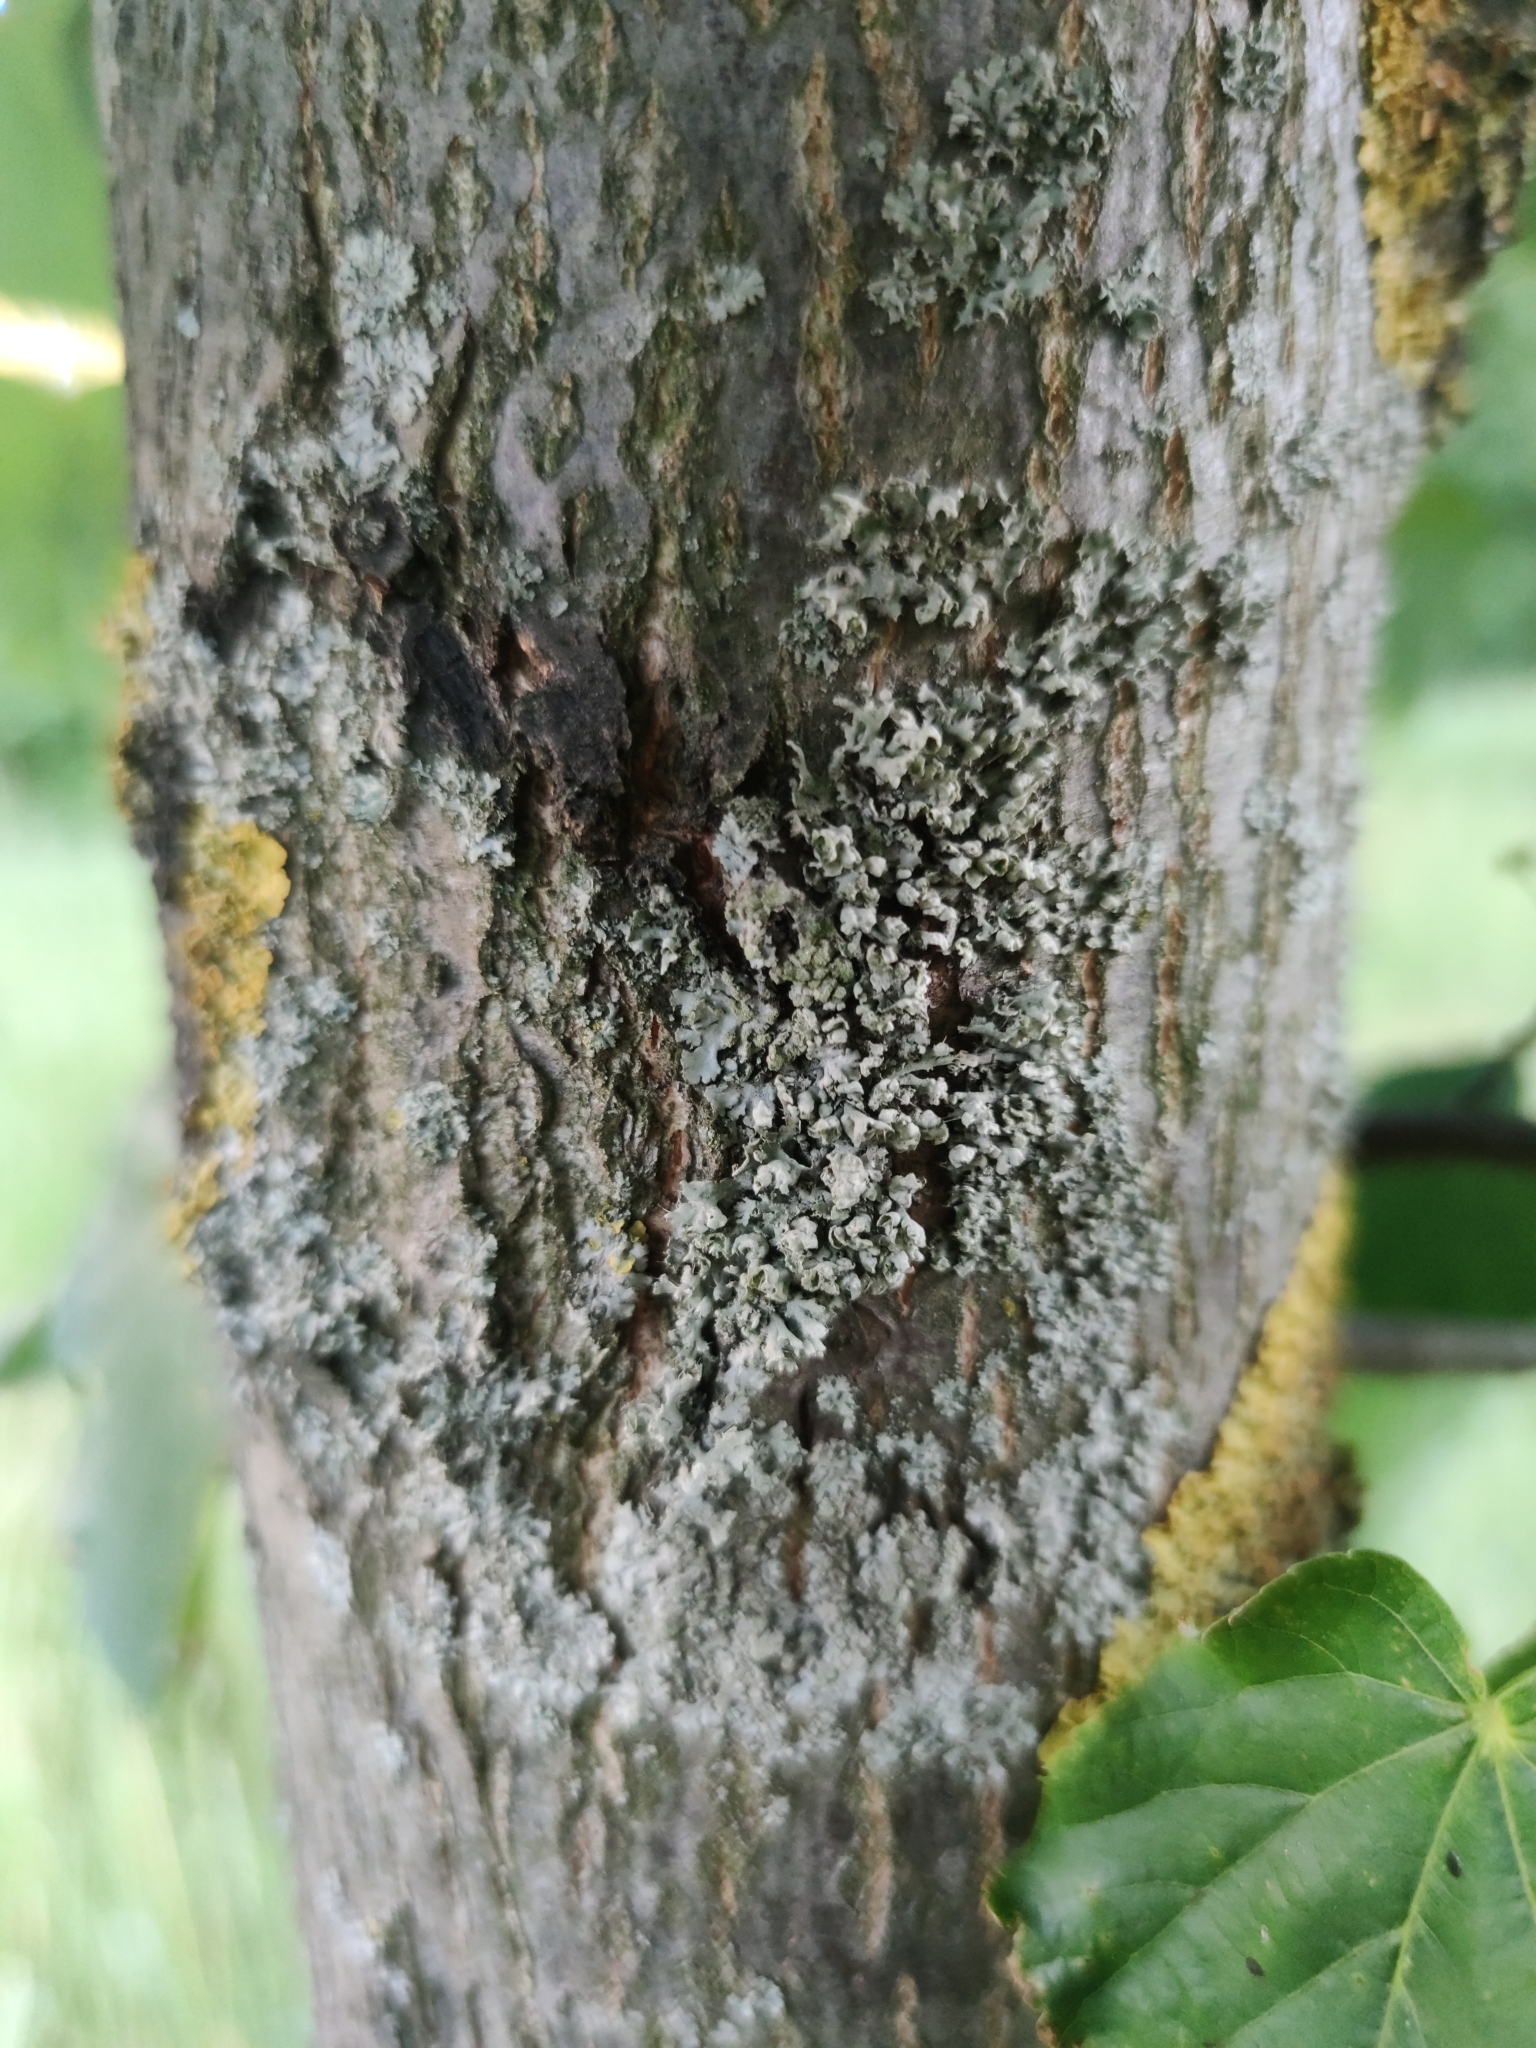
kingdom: Fungi
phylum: Ascomycota
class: Lecanoromycetes
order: Caliciales
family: Physciaceae
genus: Physcia
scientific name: Physcia adscendens
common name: Hooded rosette lichen
